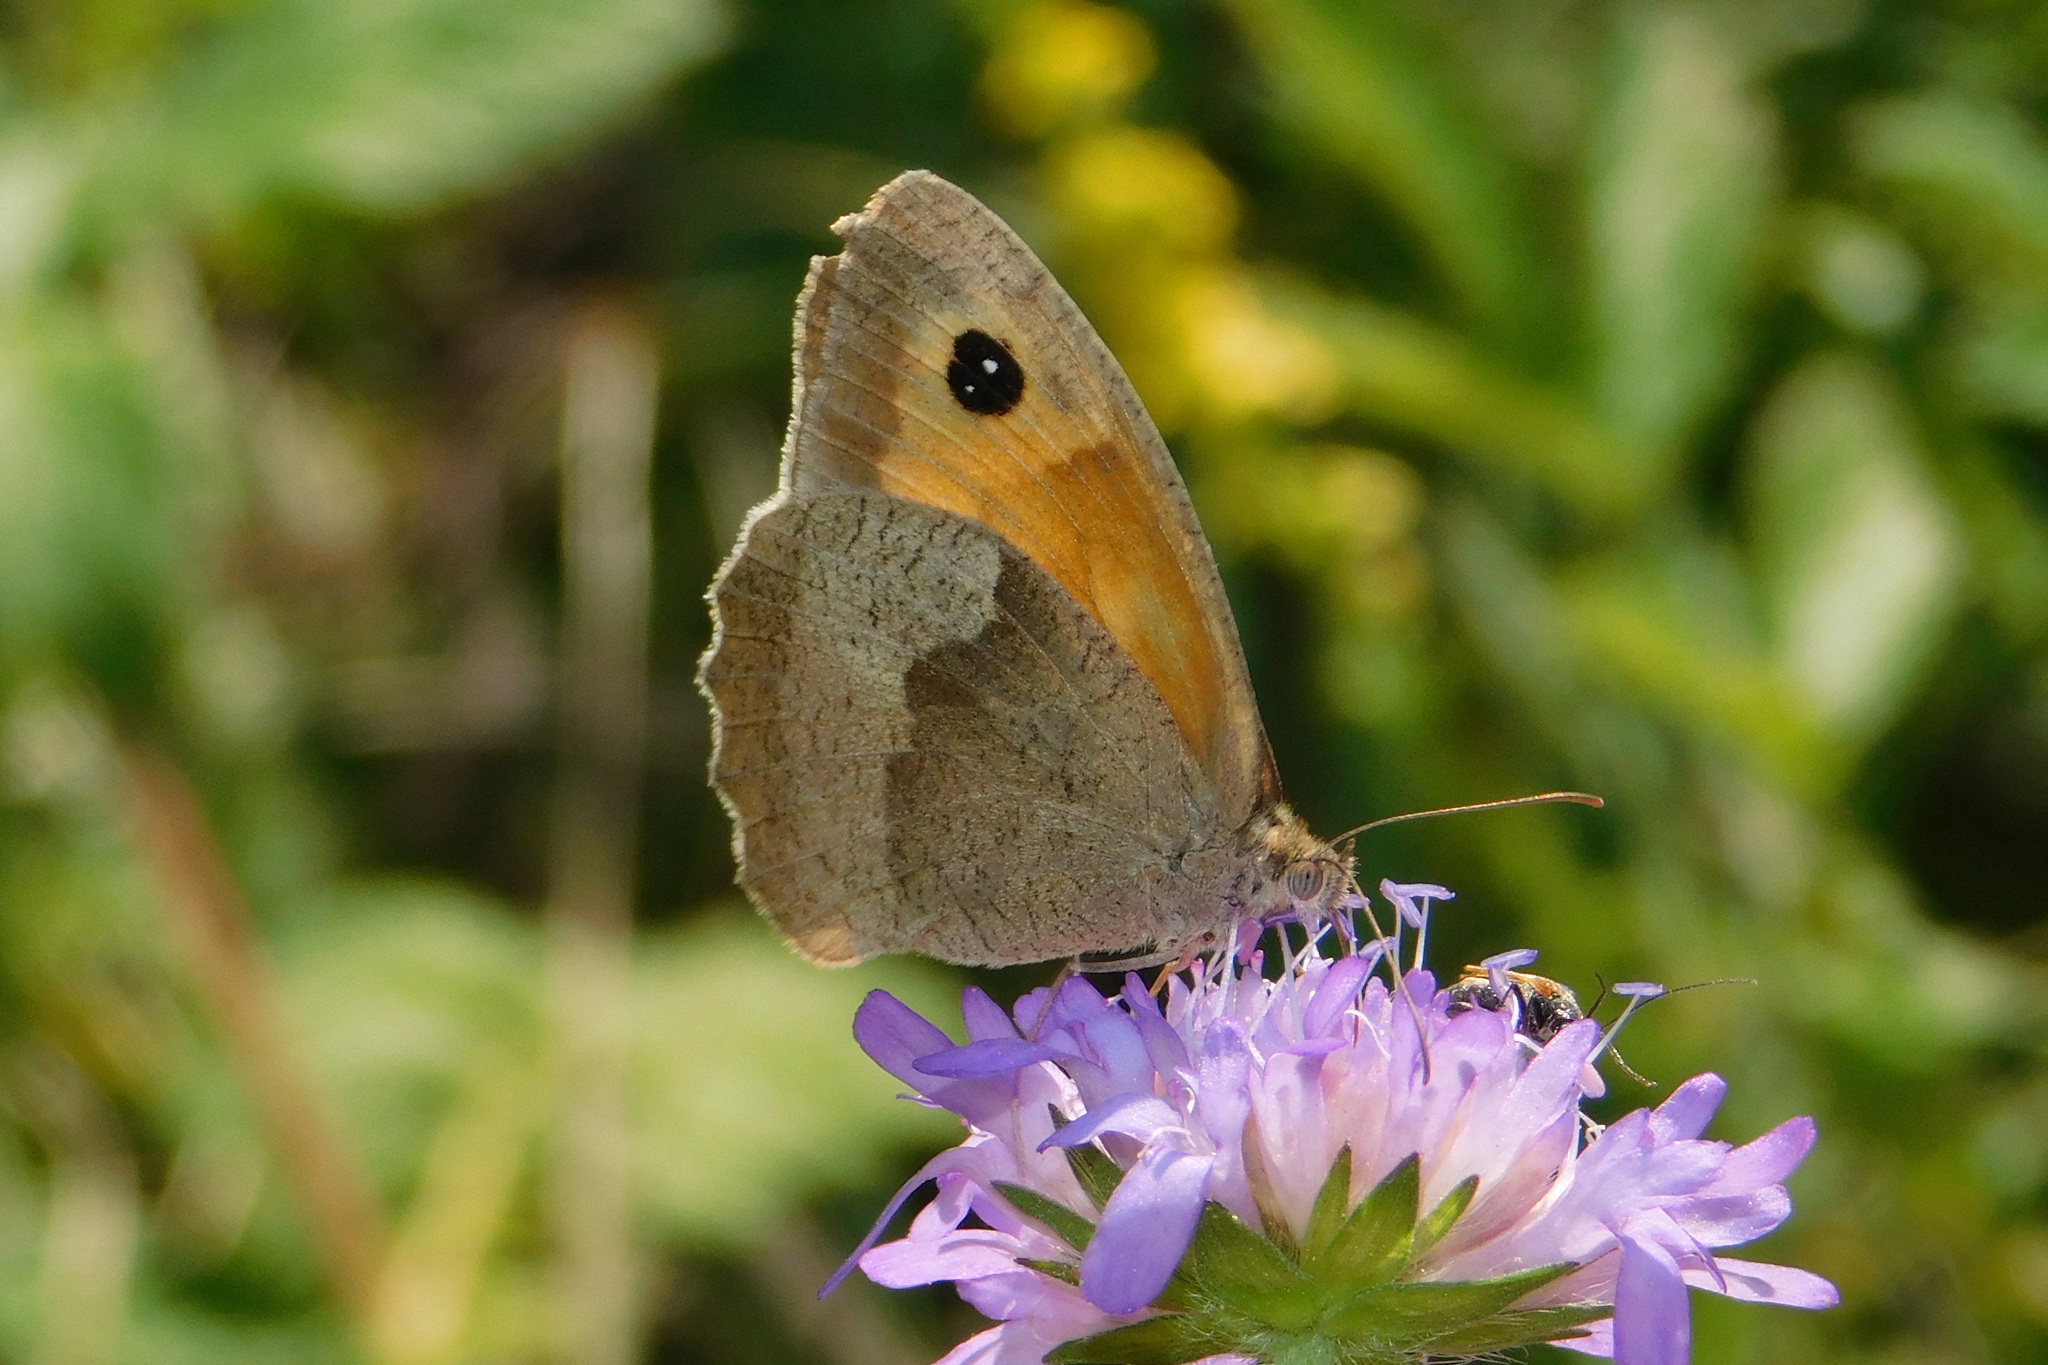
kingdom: Animalia
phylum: Arthropoda
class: Insecta
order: Lepidoptera
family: Nymphalidae
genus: Maniola
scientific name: Maniola jurtina
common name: Meadow brown
